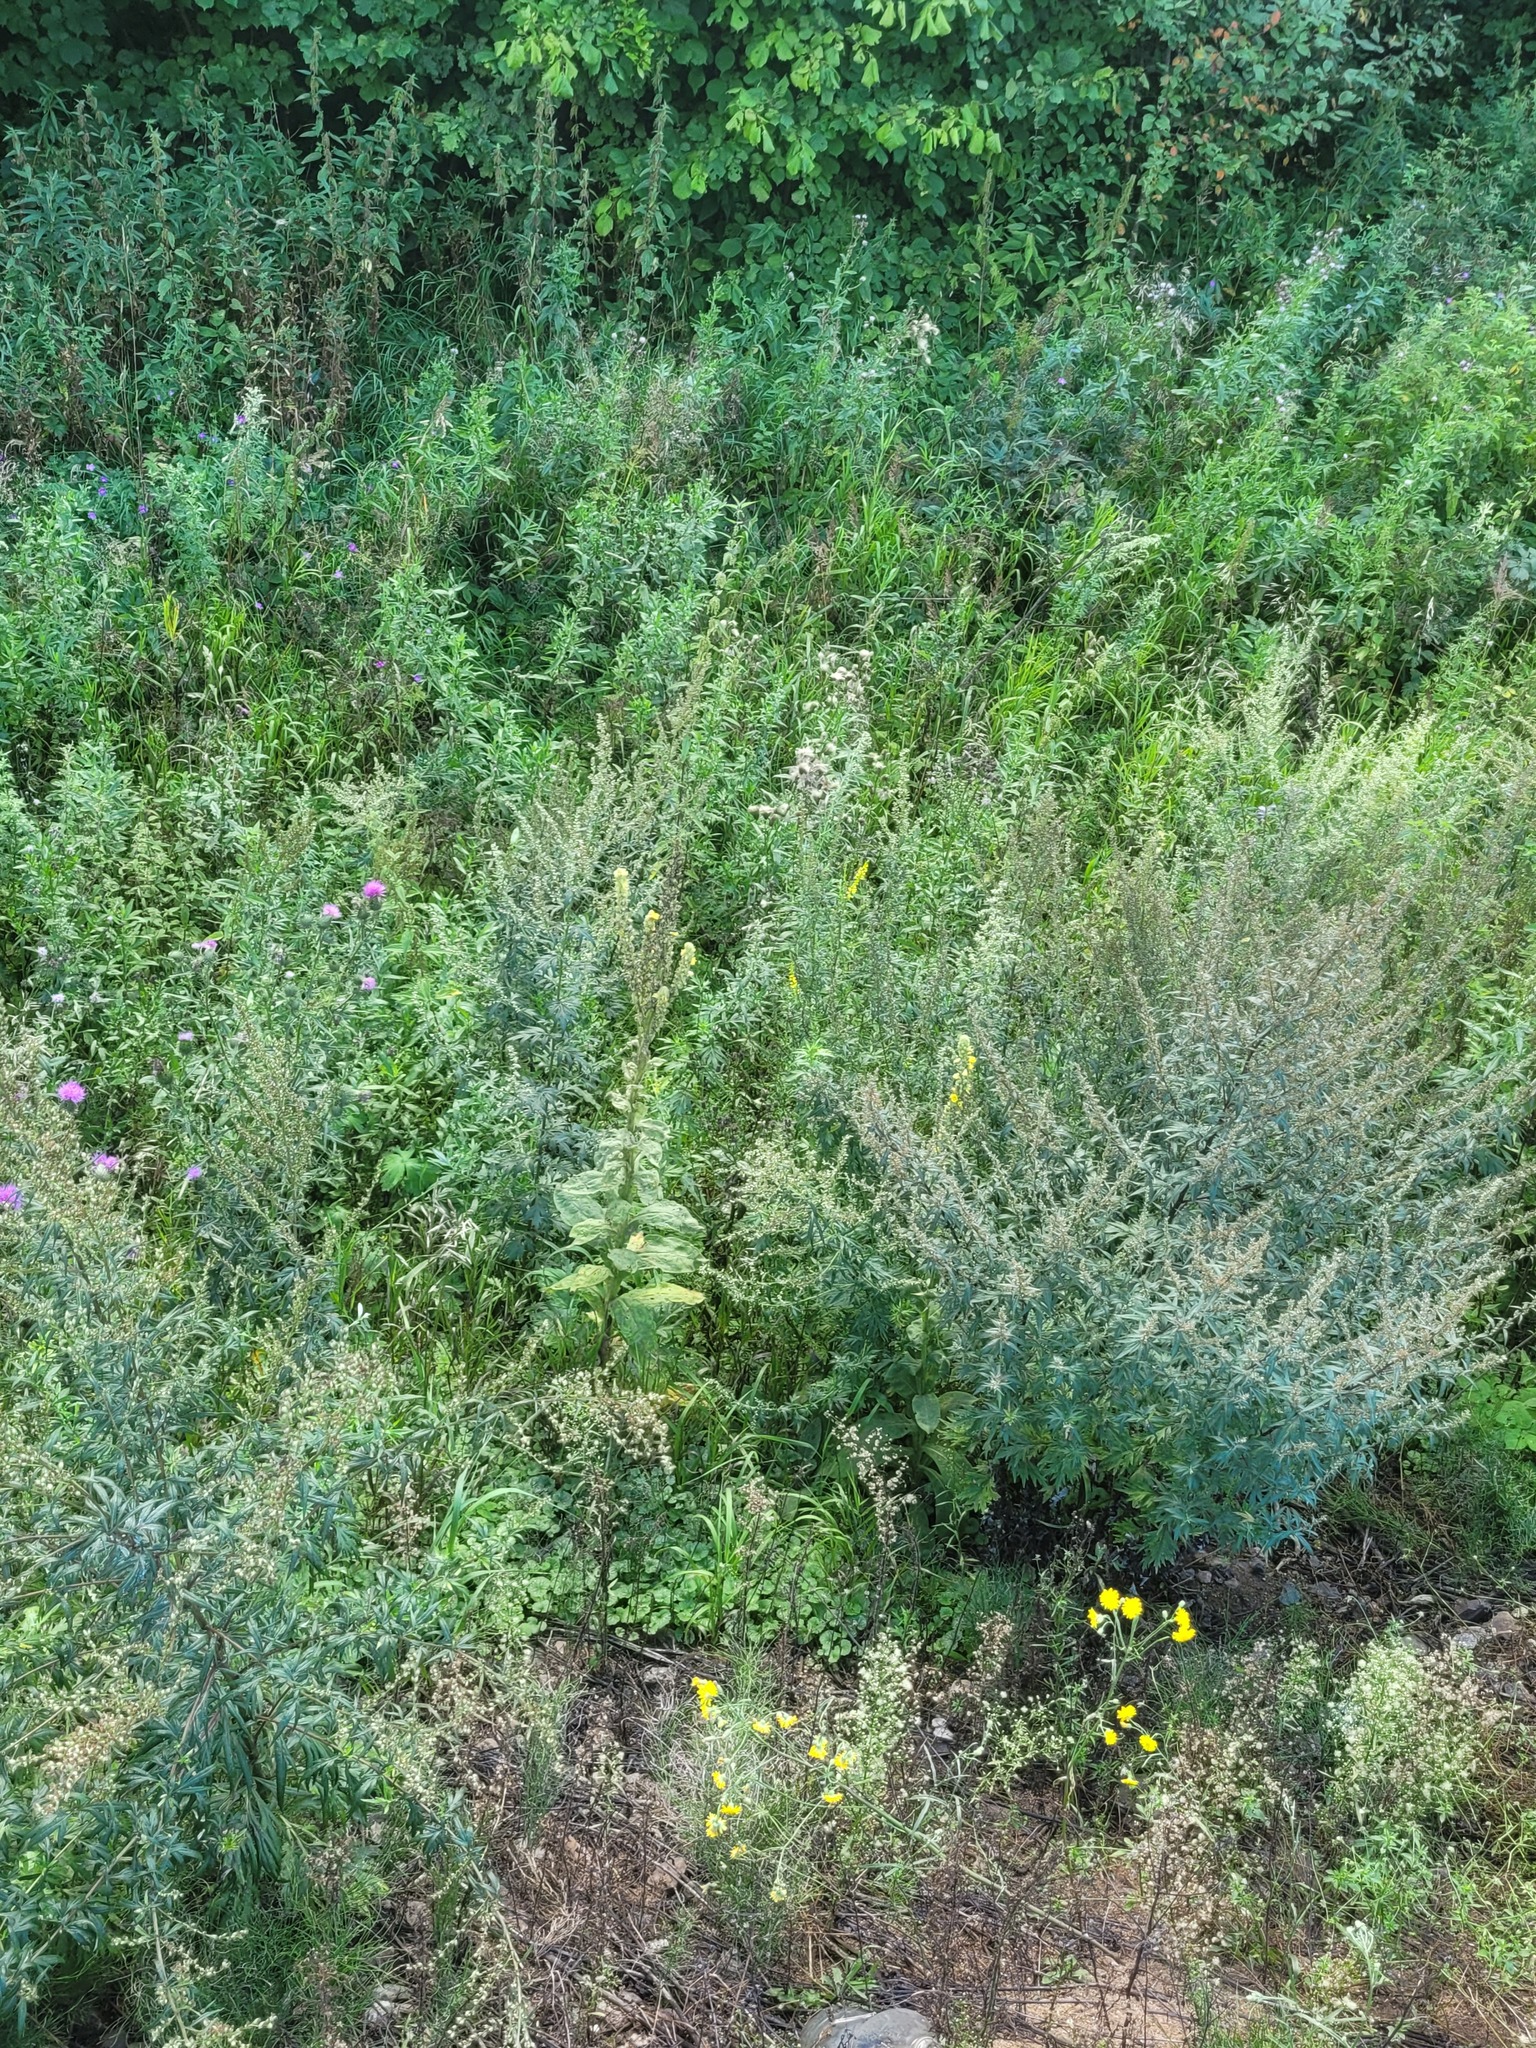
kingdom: Plantae
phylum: Tracheophyta
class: Magnoliopsida
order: Lamiales
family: Scrophulariaceae
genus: Verbascum
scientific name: Verbascum thapsus
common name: Common mullein
